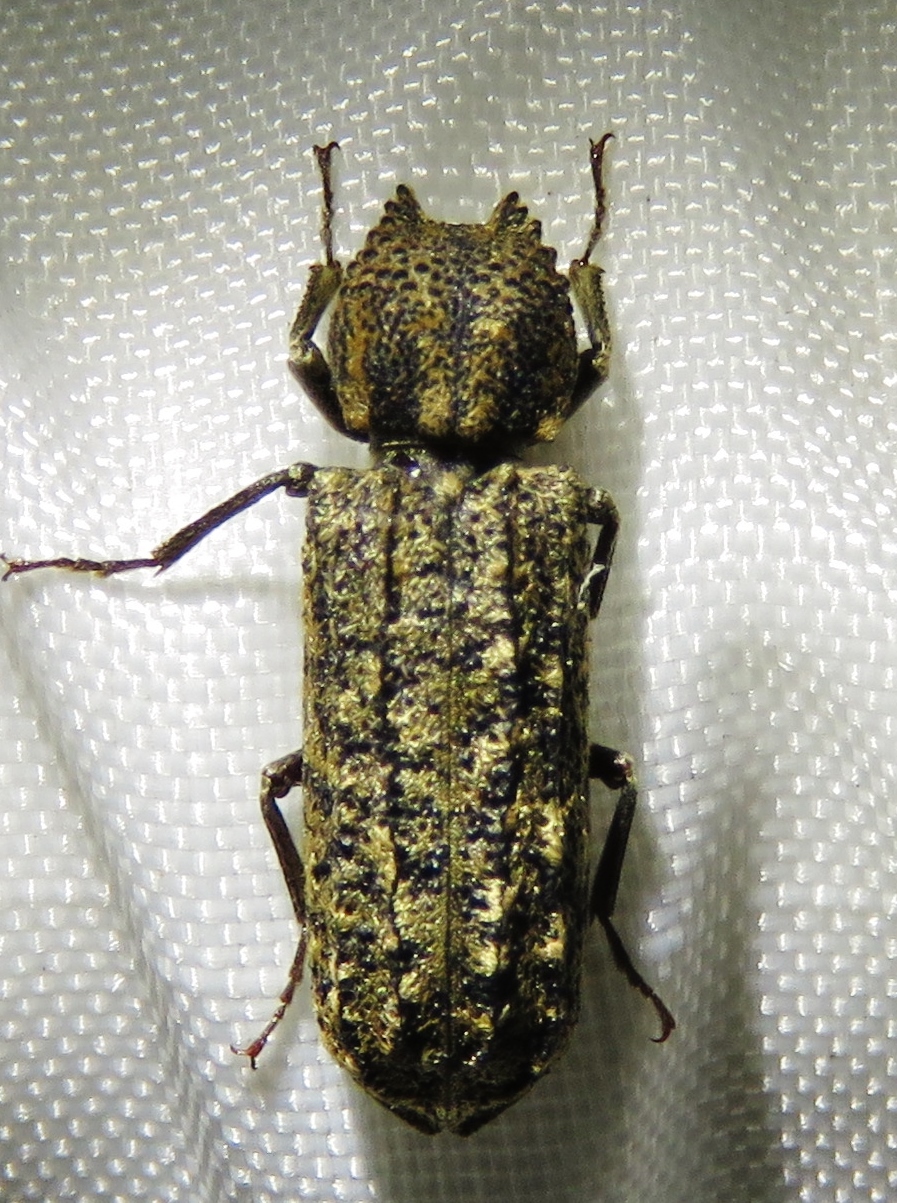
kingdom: Animalia
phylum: Arthropoda
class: Insecta
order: Coleoptera
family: Bostrichidae
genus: Lichenophanes
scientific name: Lichenophanes bicornis
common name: Two-horned powder-post beetle
